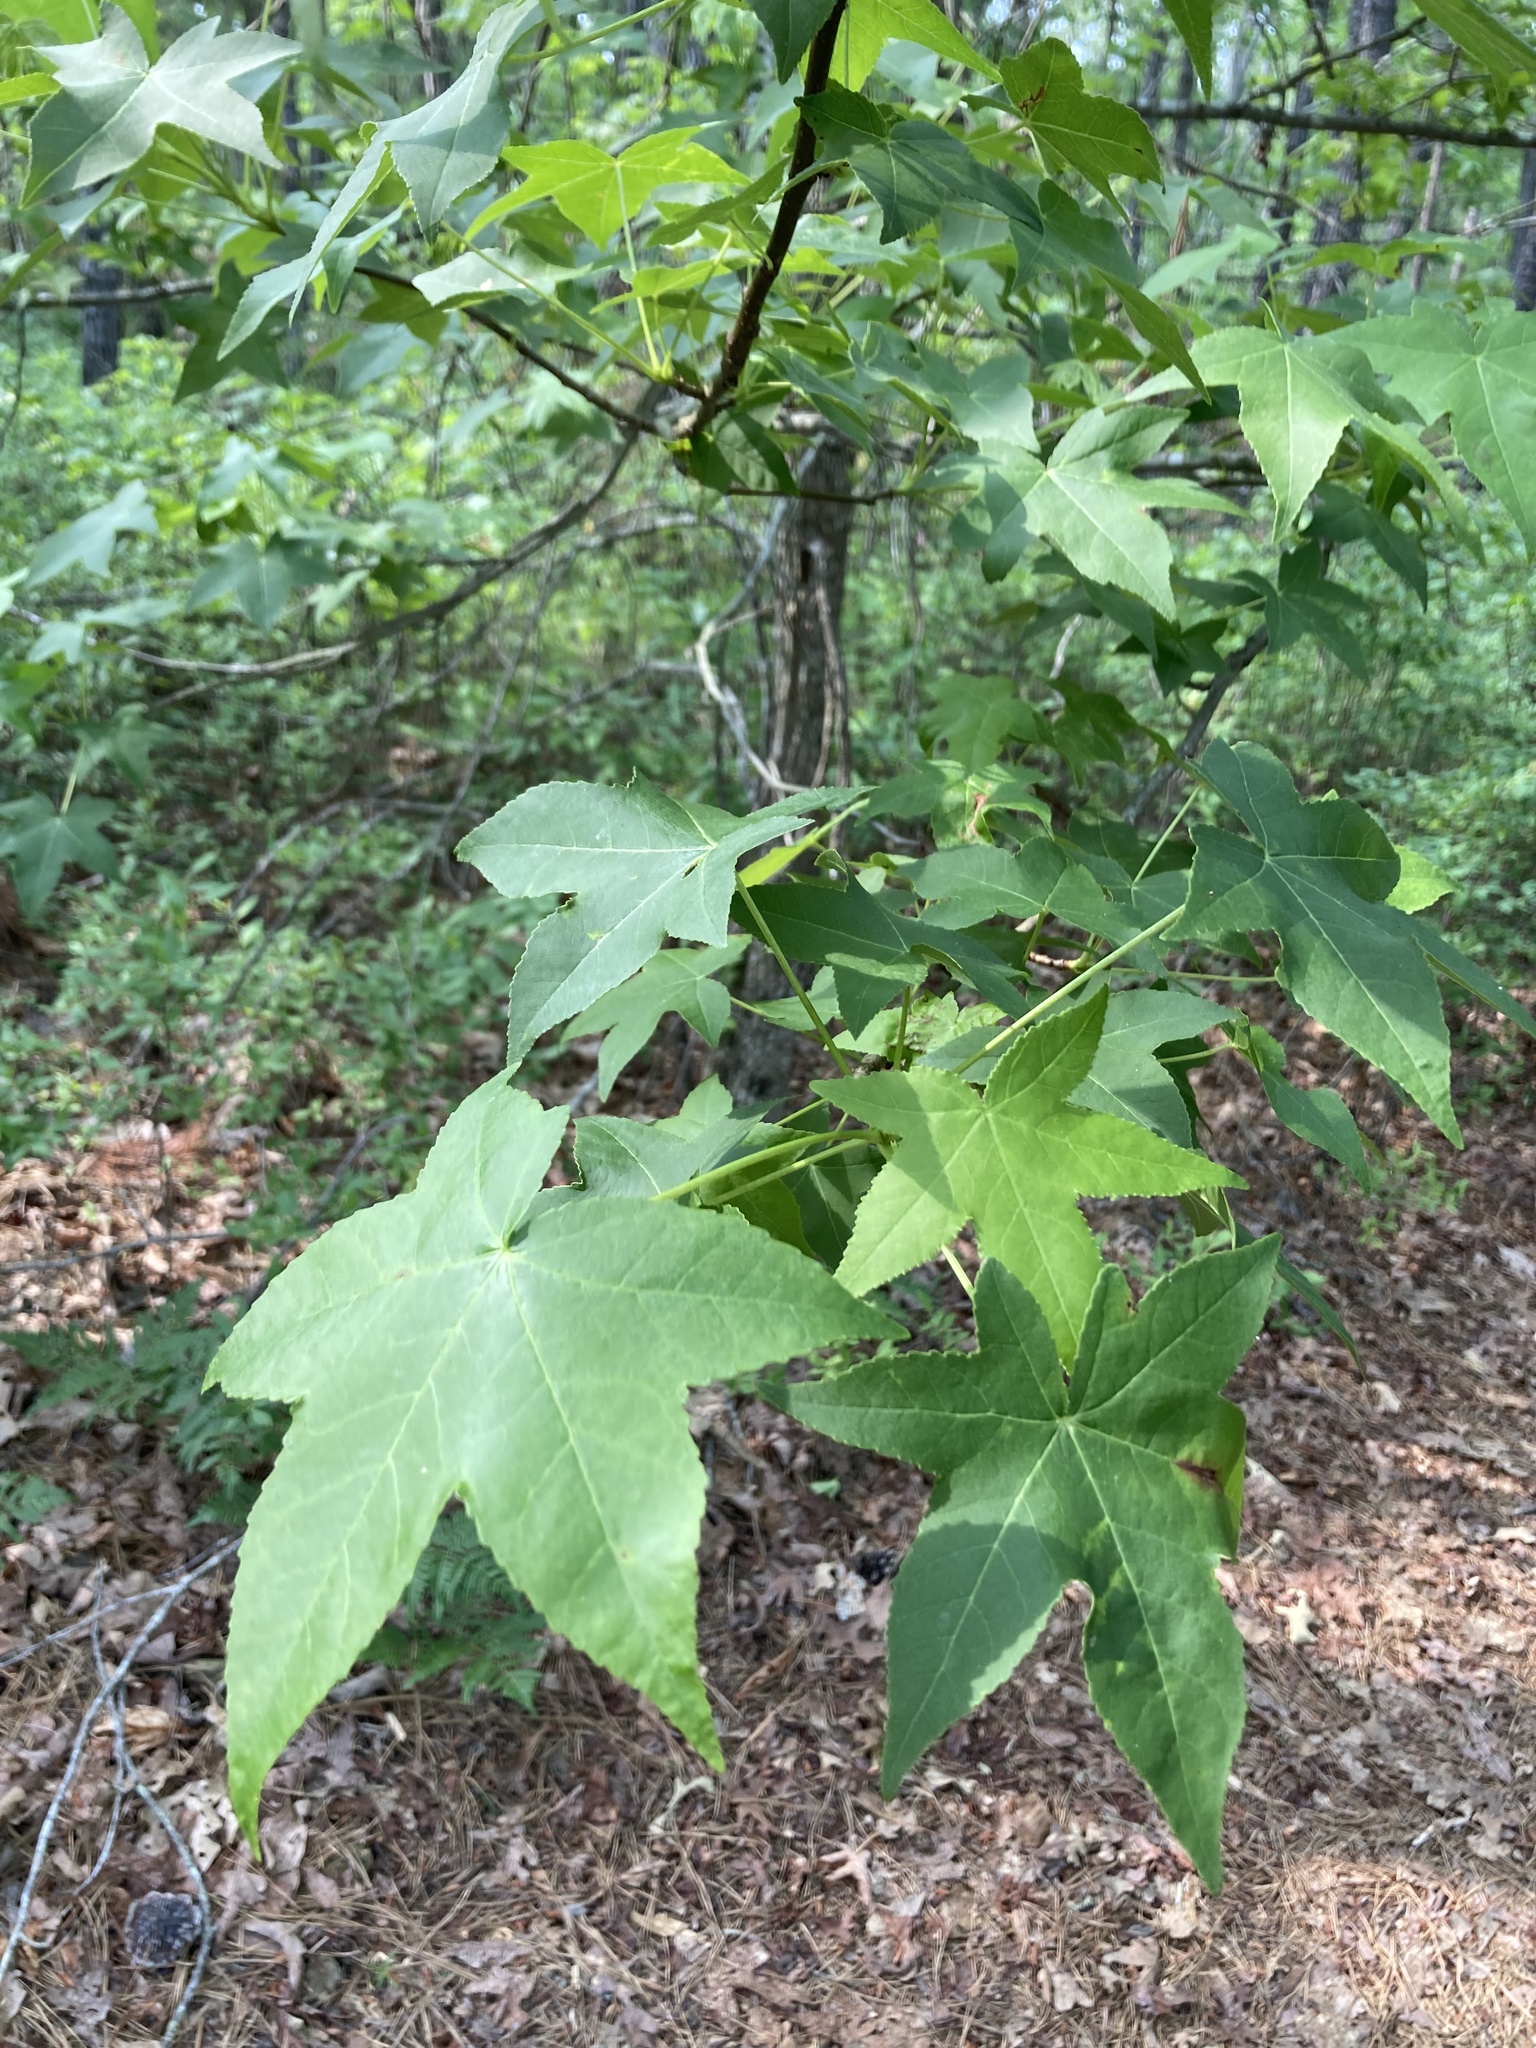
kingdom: Plantae
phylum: Tracheophyta
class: Magnoliopsida
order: Saxifragales
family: Altingiaceae
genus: Liquidambar
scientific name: Liquidambar styraciflua
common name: Sweet gum
